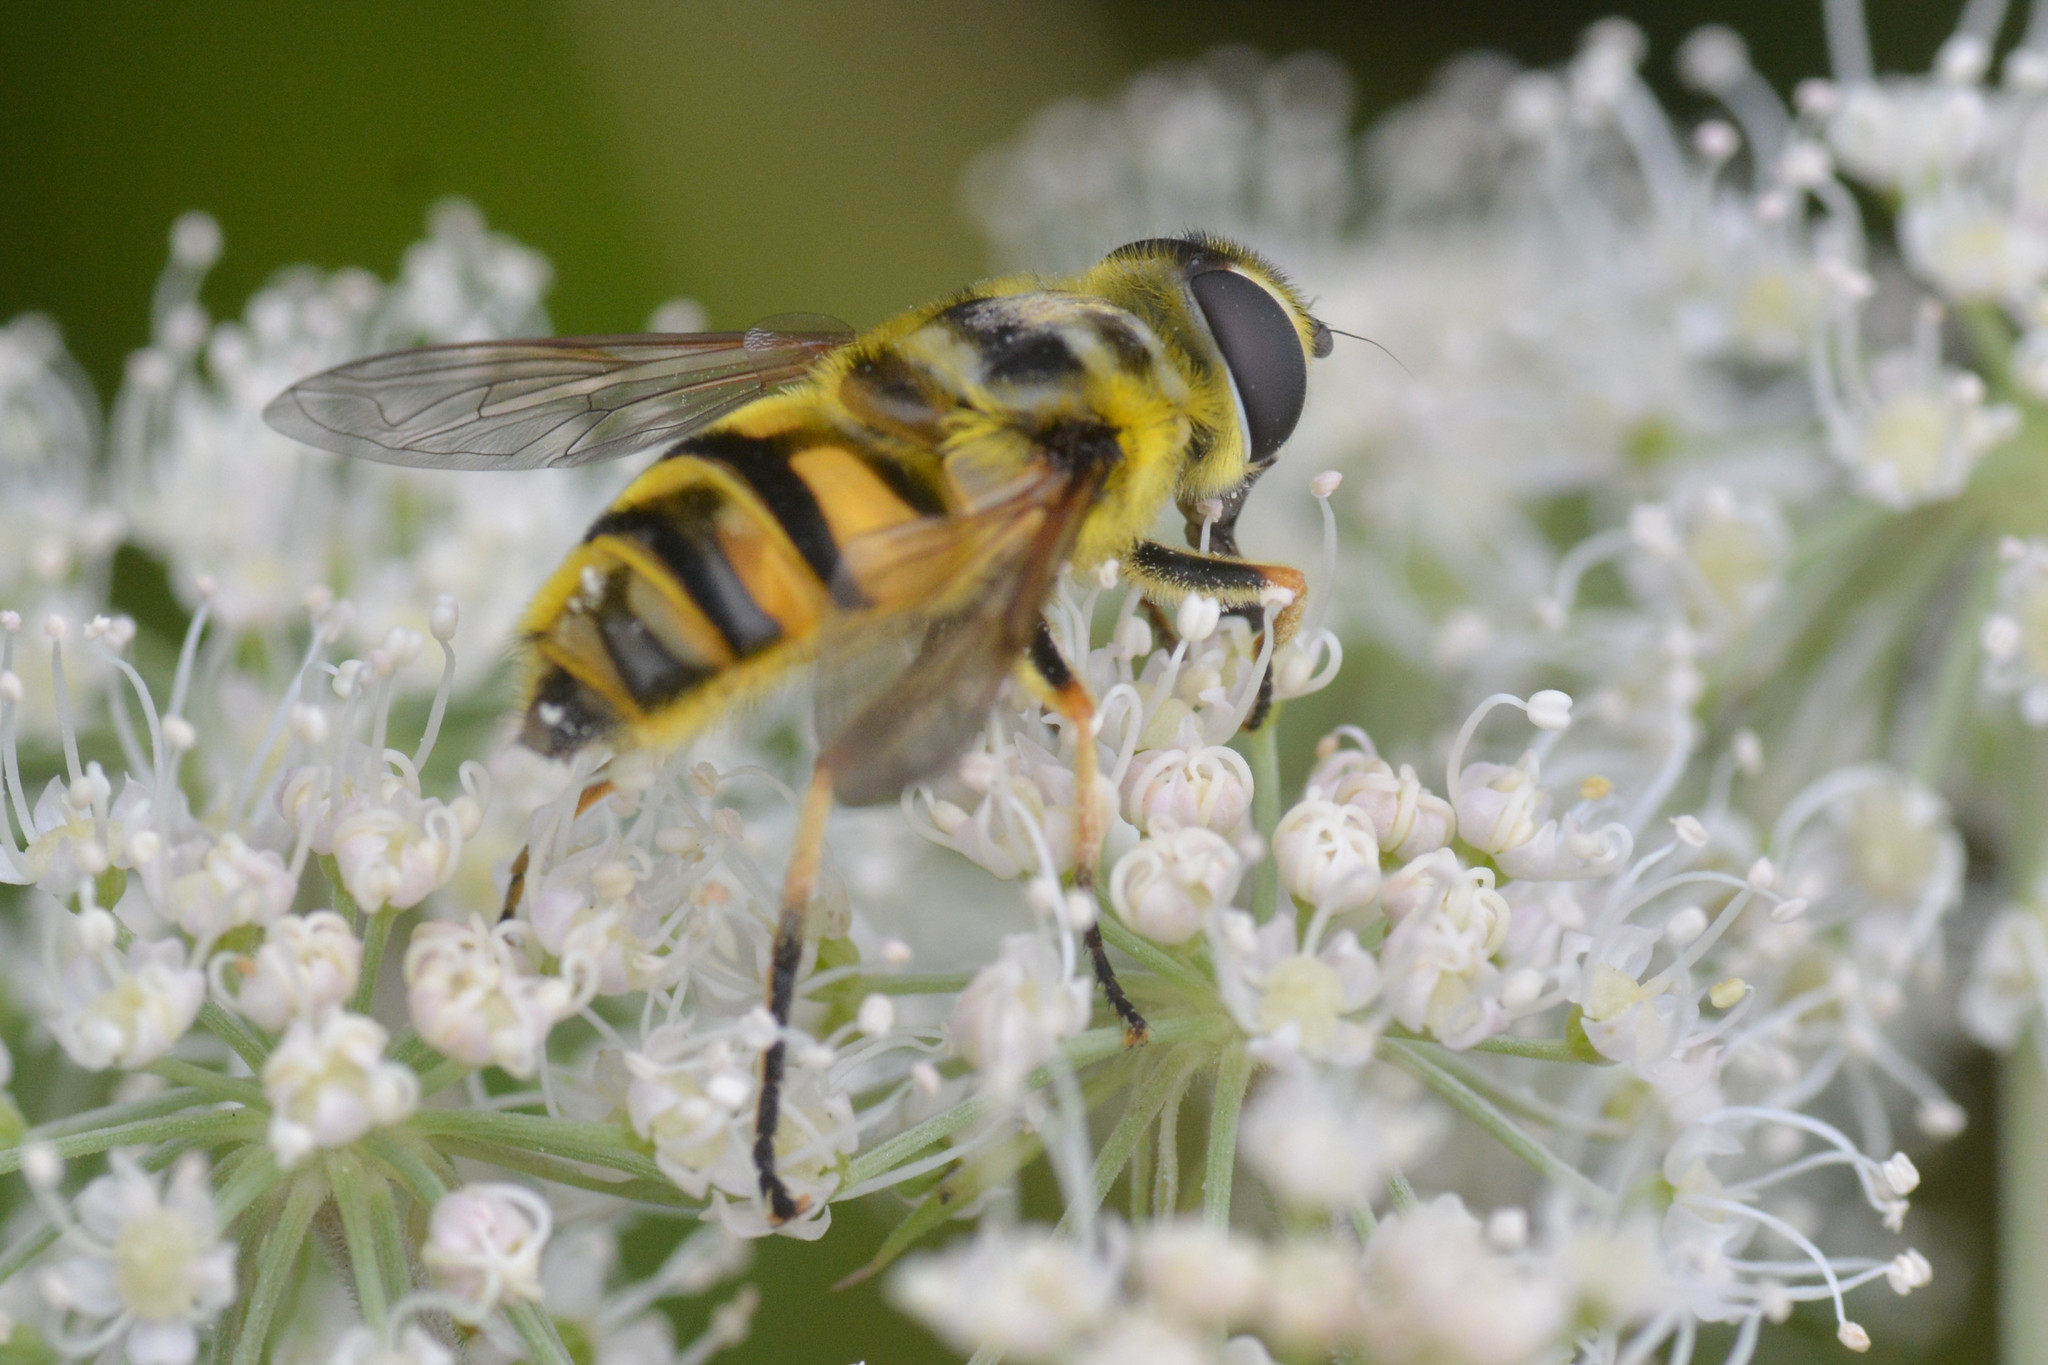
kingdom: Animalia
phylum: Arthropoda
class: Insecta
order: Diptera
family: Syrphidae
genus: Myathropa
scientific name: Myathropa florea
